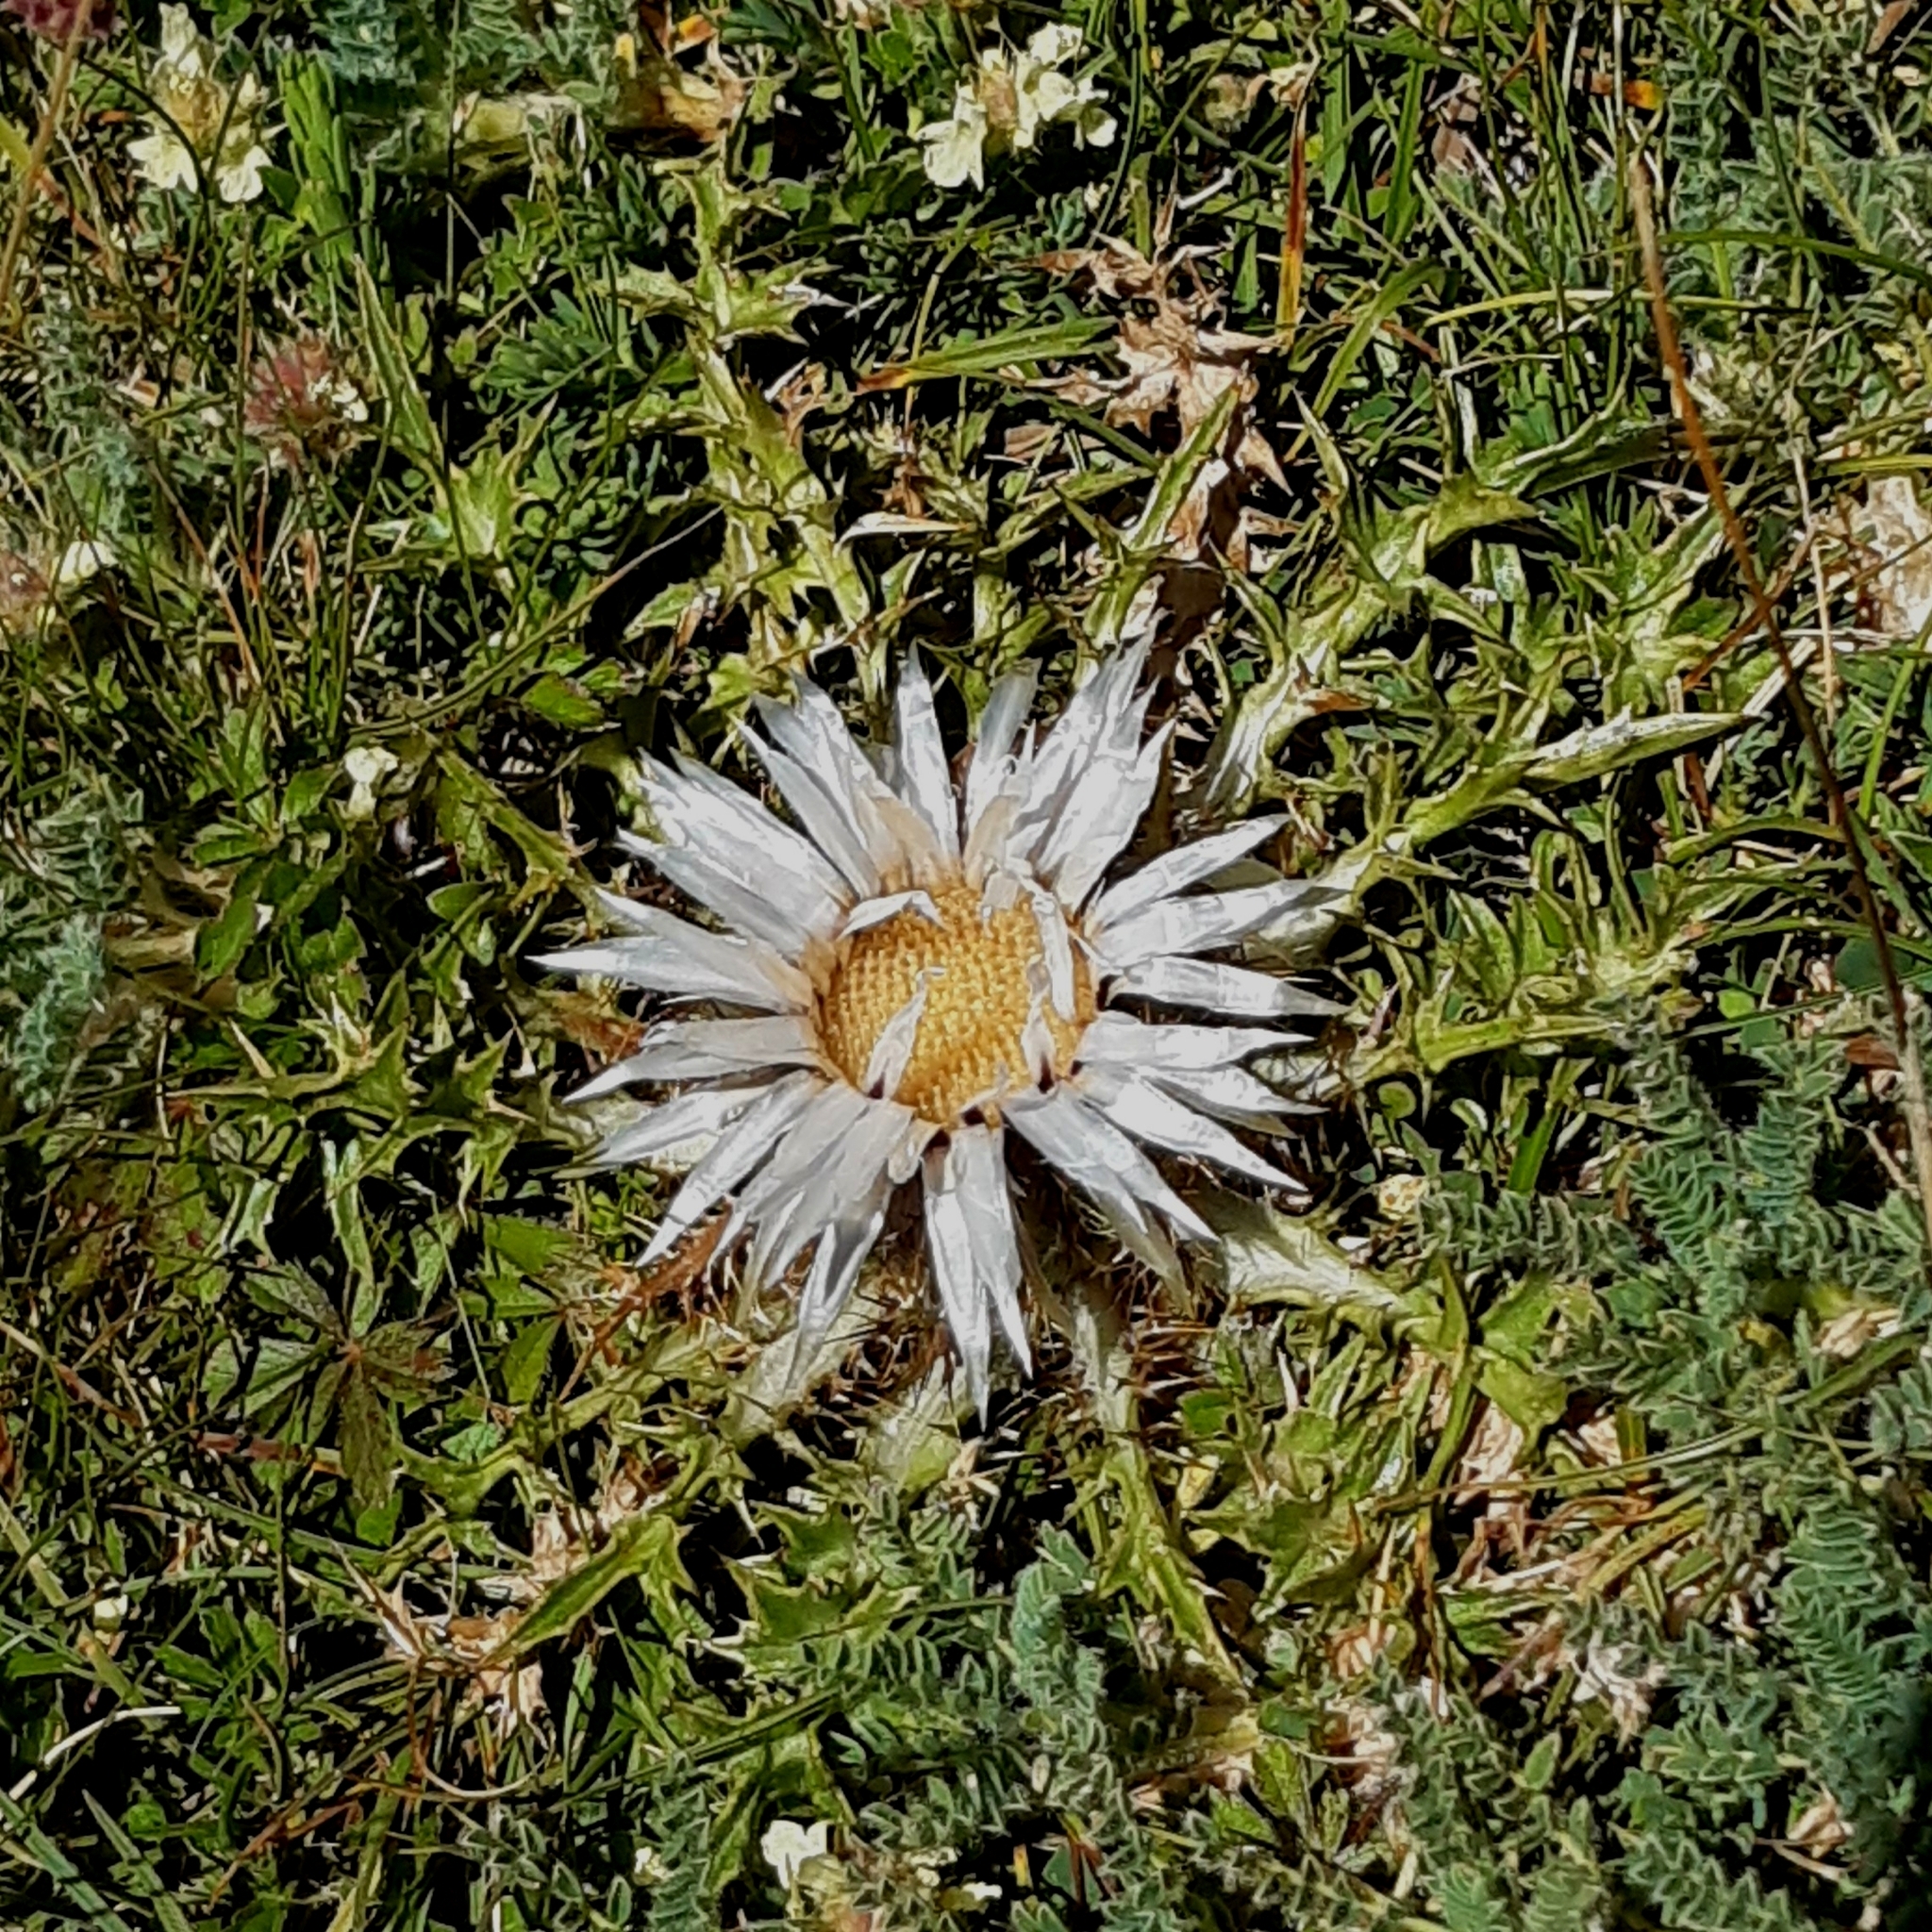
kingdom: Plantae
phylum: Tracheophyta
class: Magnoliopsida
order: Asterales
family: Asteraceae
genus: Carlina
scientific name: Carlina acaulis
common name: Stemless carline thistle
